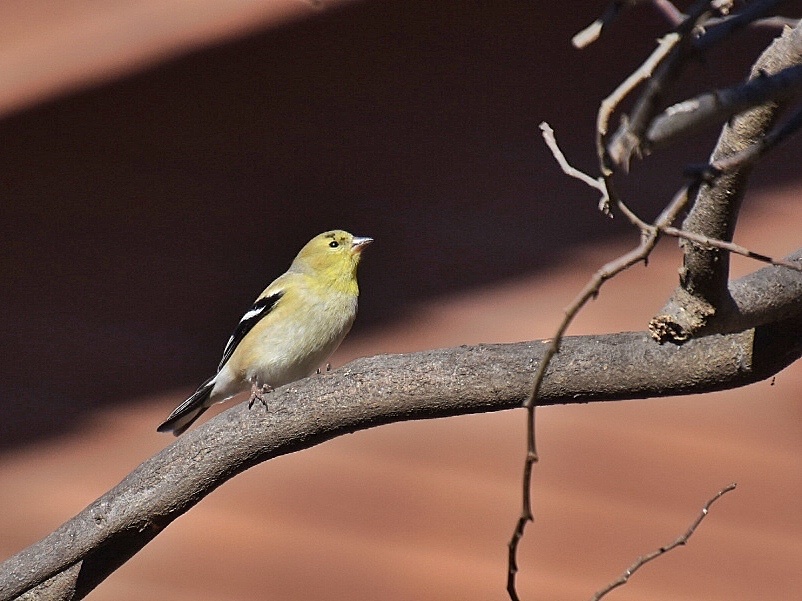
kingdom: Animalia
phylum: Chordata
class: Aves
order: Passeriformes
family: Fringillidae
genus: Spinus
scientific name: Spinus tristis
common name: American goldfinch
